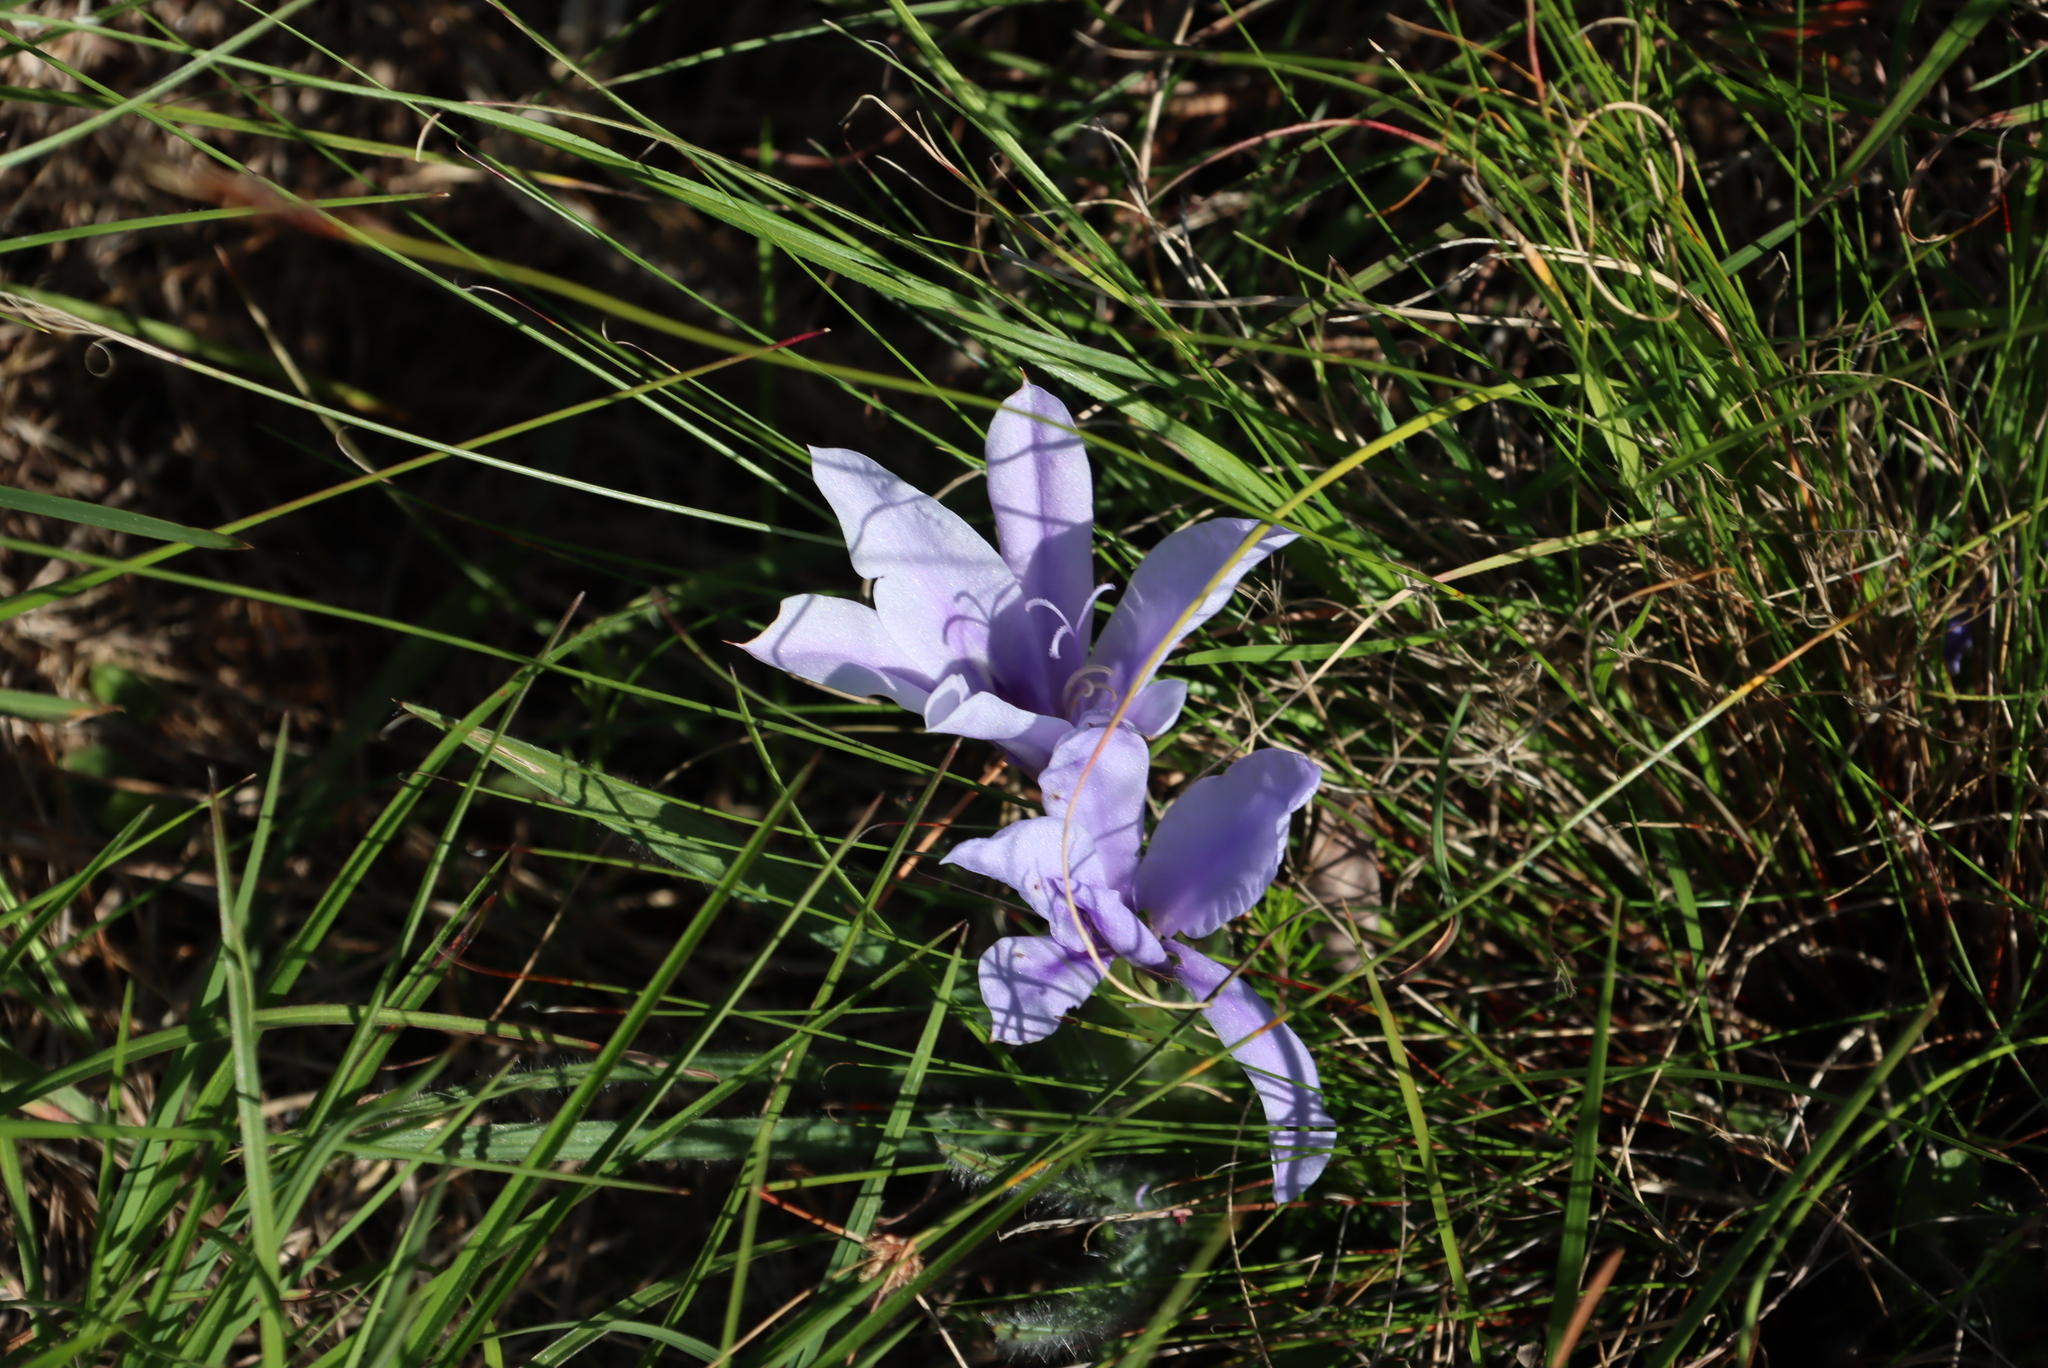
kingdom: Plantae
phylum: Tracheophyta
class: Liliopsida
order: Asparagales
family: Iridaceae
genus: Babiana
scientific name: Babiana sambucina
